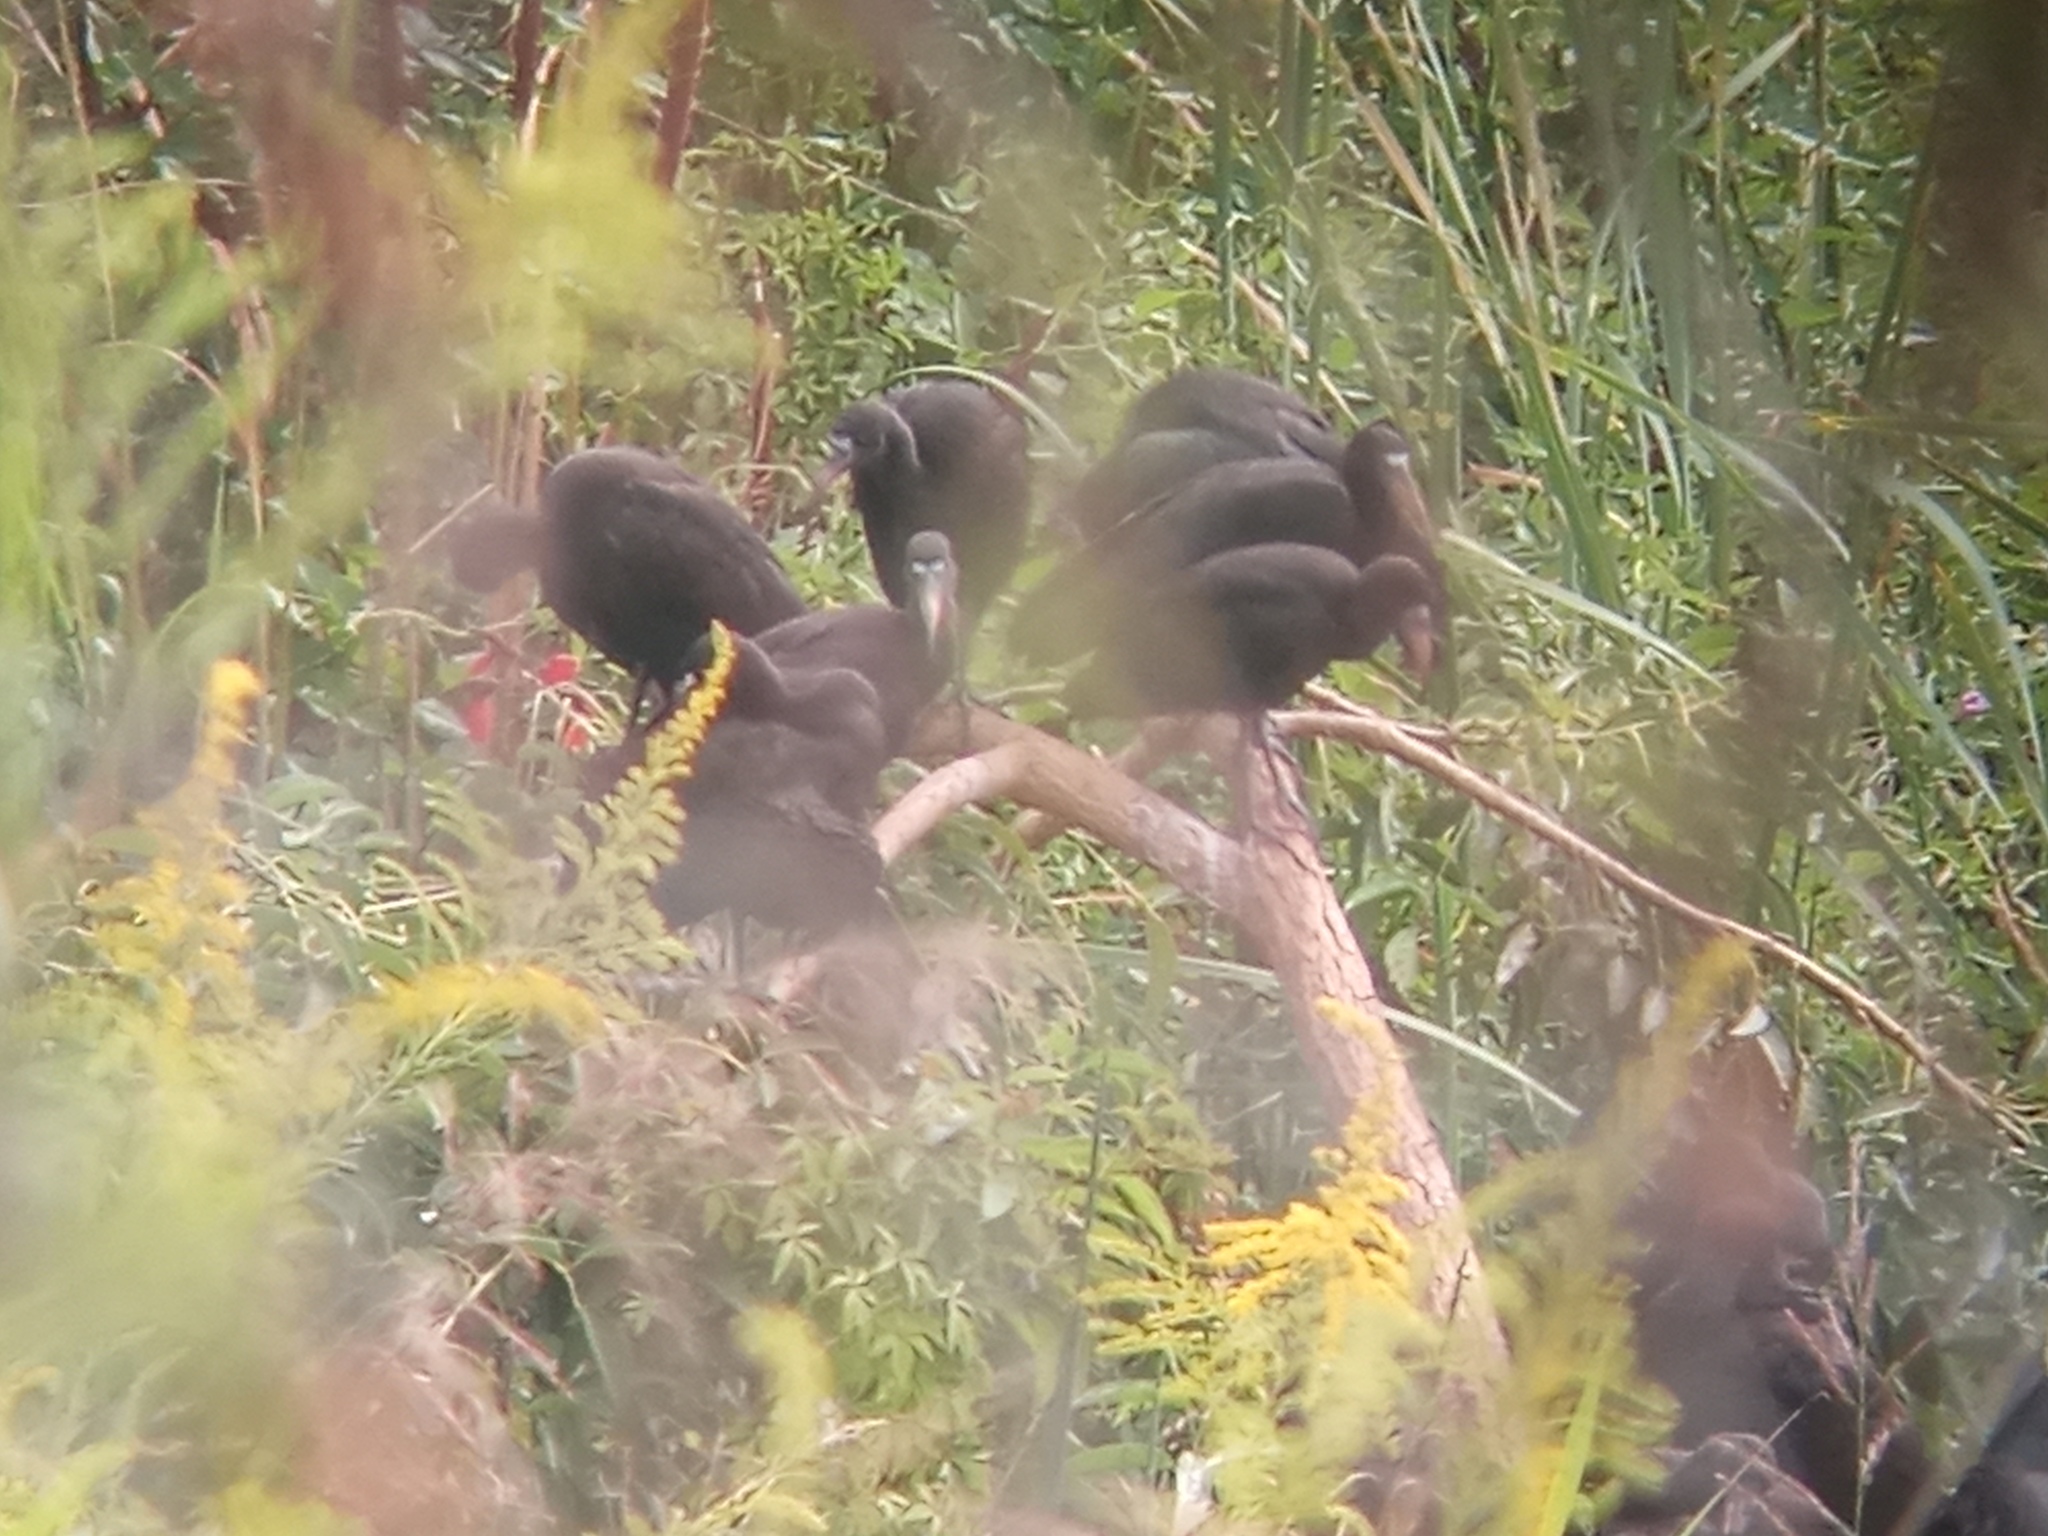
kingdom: Animalia
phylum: Chordata
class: Aves
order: Pelecaniformes
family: Threskiornithidae
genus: Phimosus
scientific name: Phimosus infuscatus
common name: Bare-faced ibis
